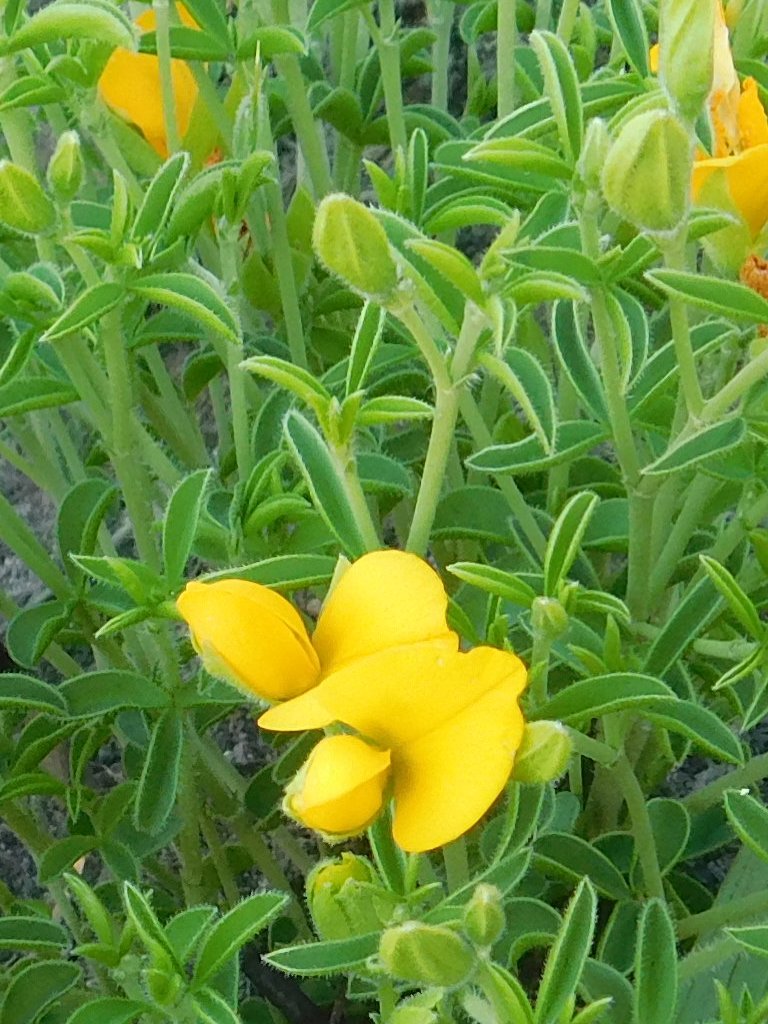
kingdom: Plantae
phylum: Tracheophyta
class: Magnoliopsida
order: Fabales
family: Fabaceae
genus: Argyrolobium
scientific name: Argyrolobium pachyphyllum
